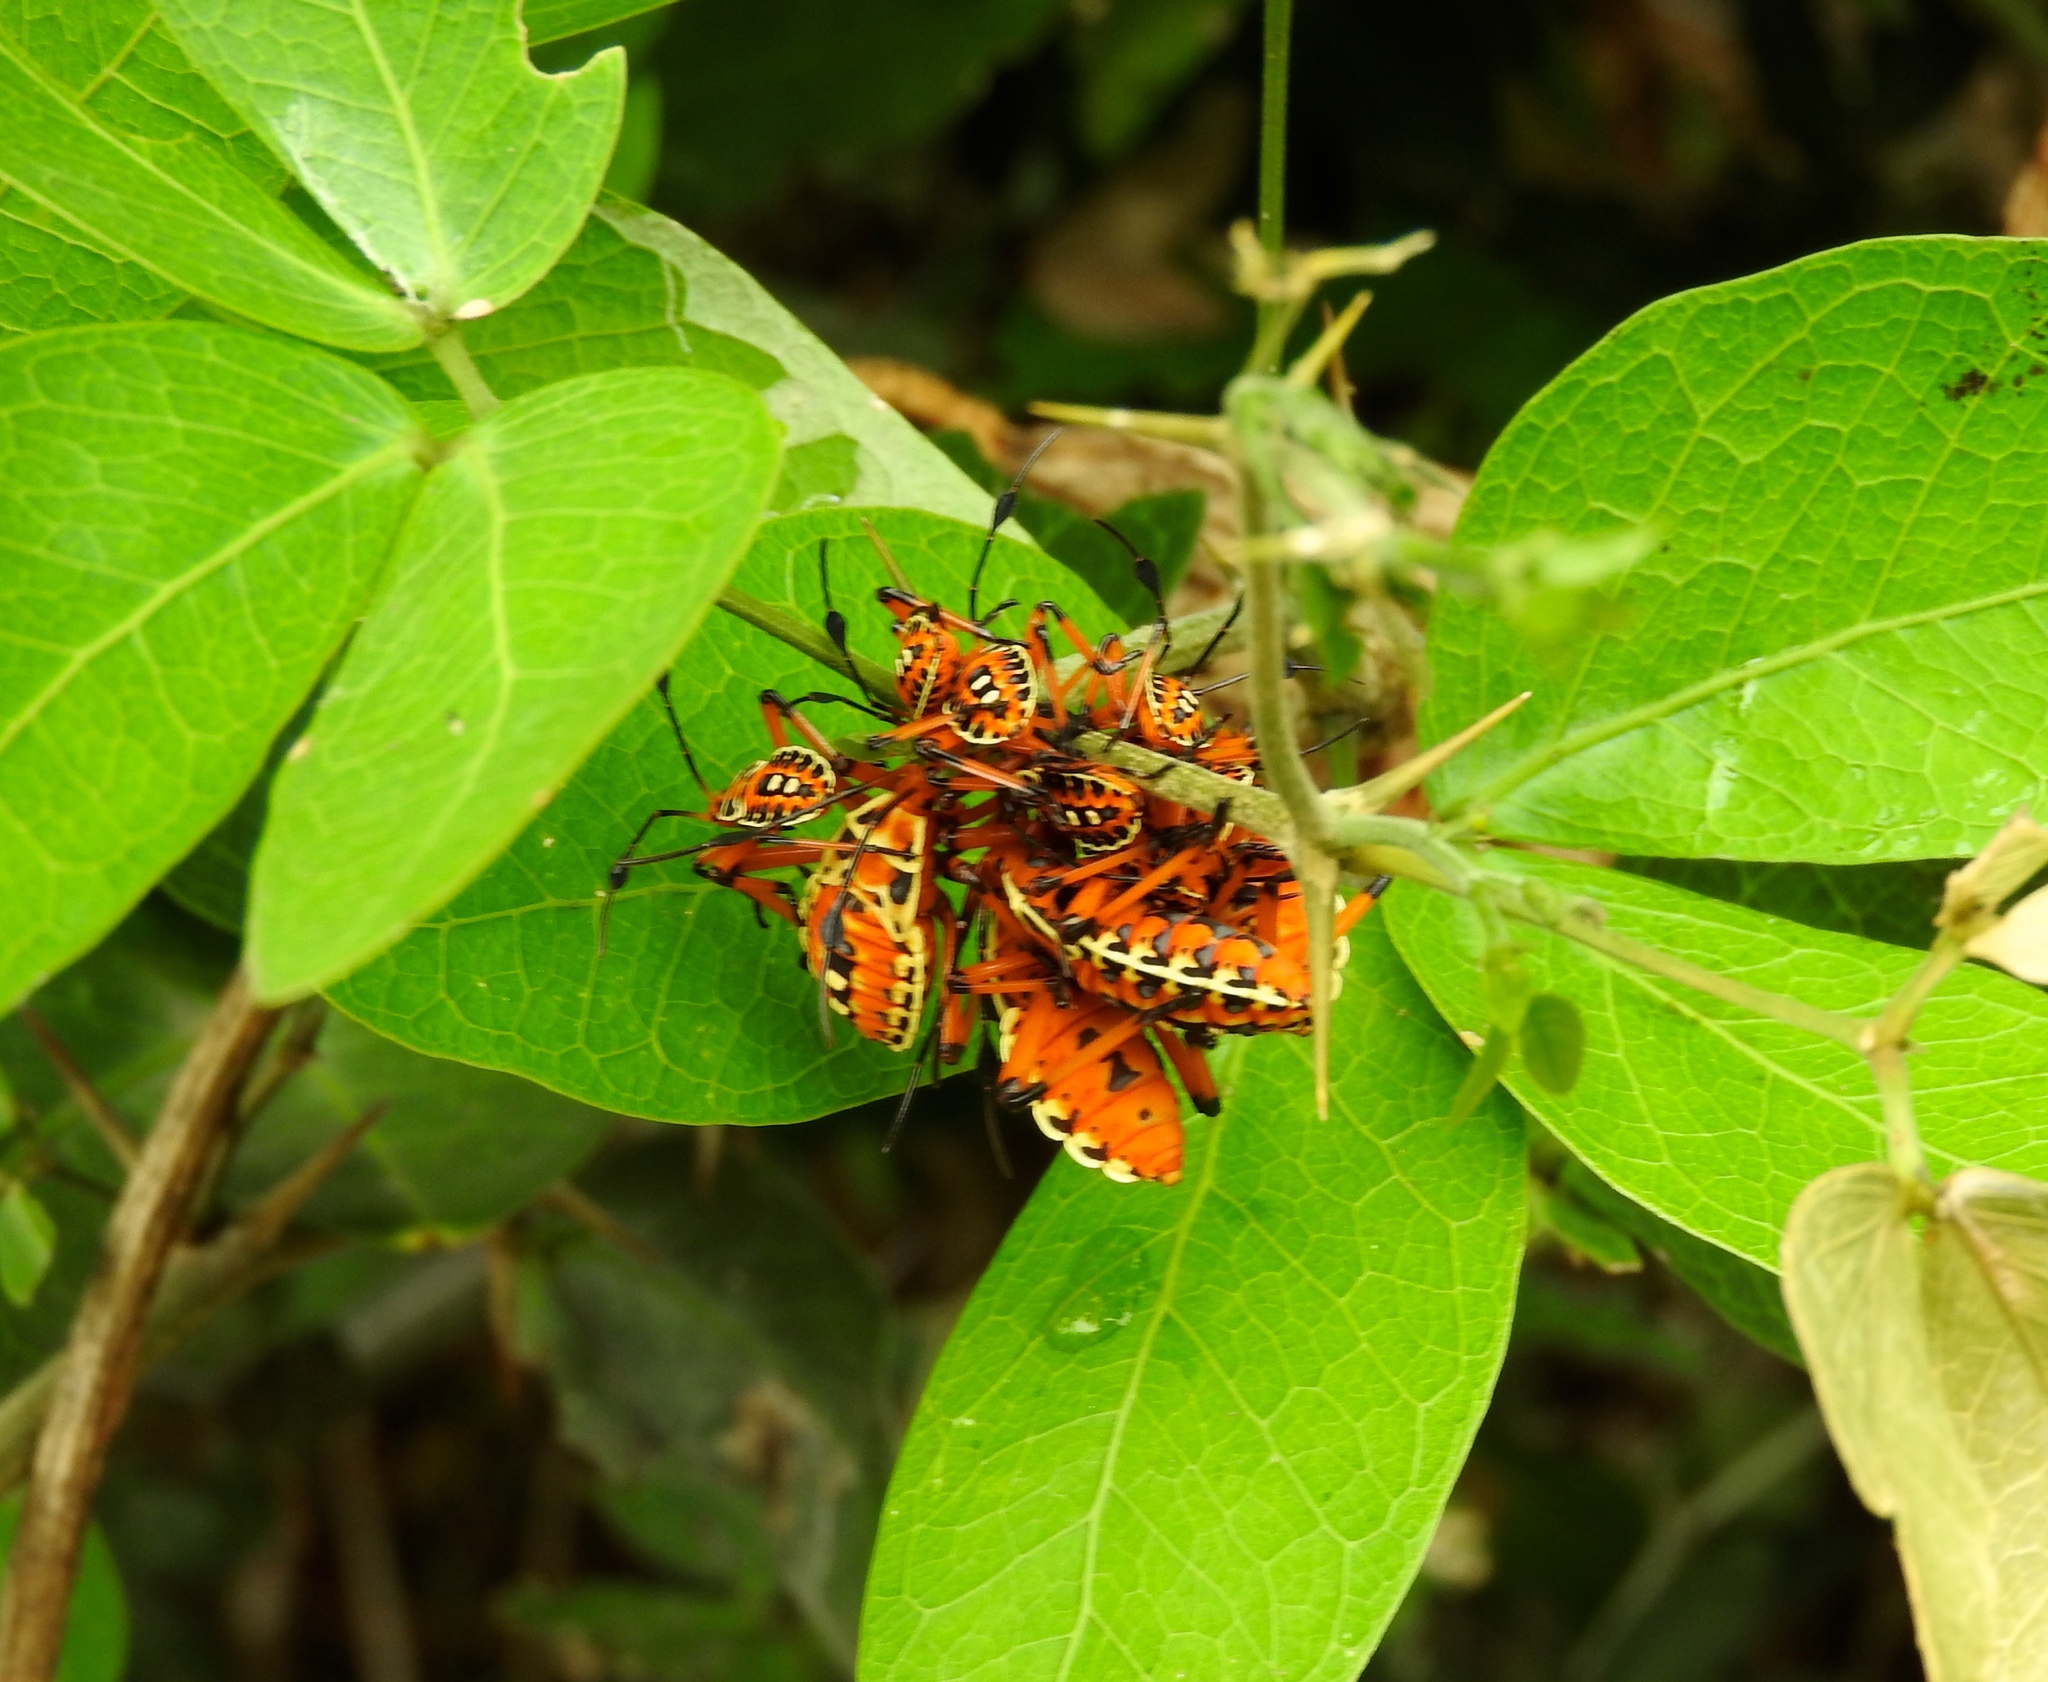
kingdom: Animalia
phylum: Arthropoda
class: Insecta
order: Hemiptera
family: Coreidae
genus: Pachylis
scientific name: Pachylis nervosus
